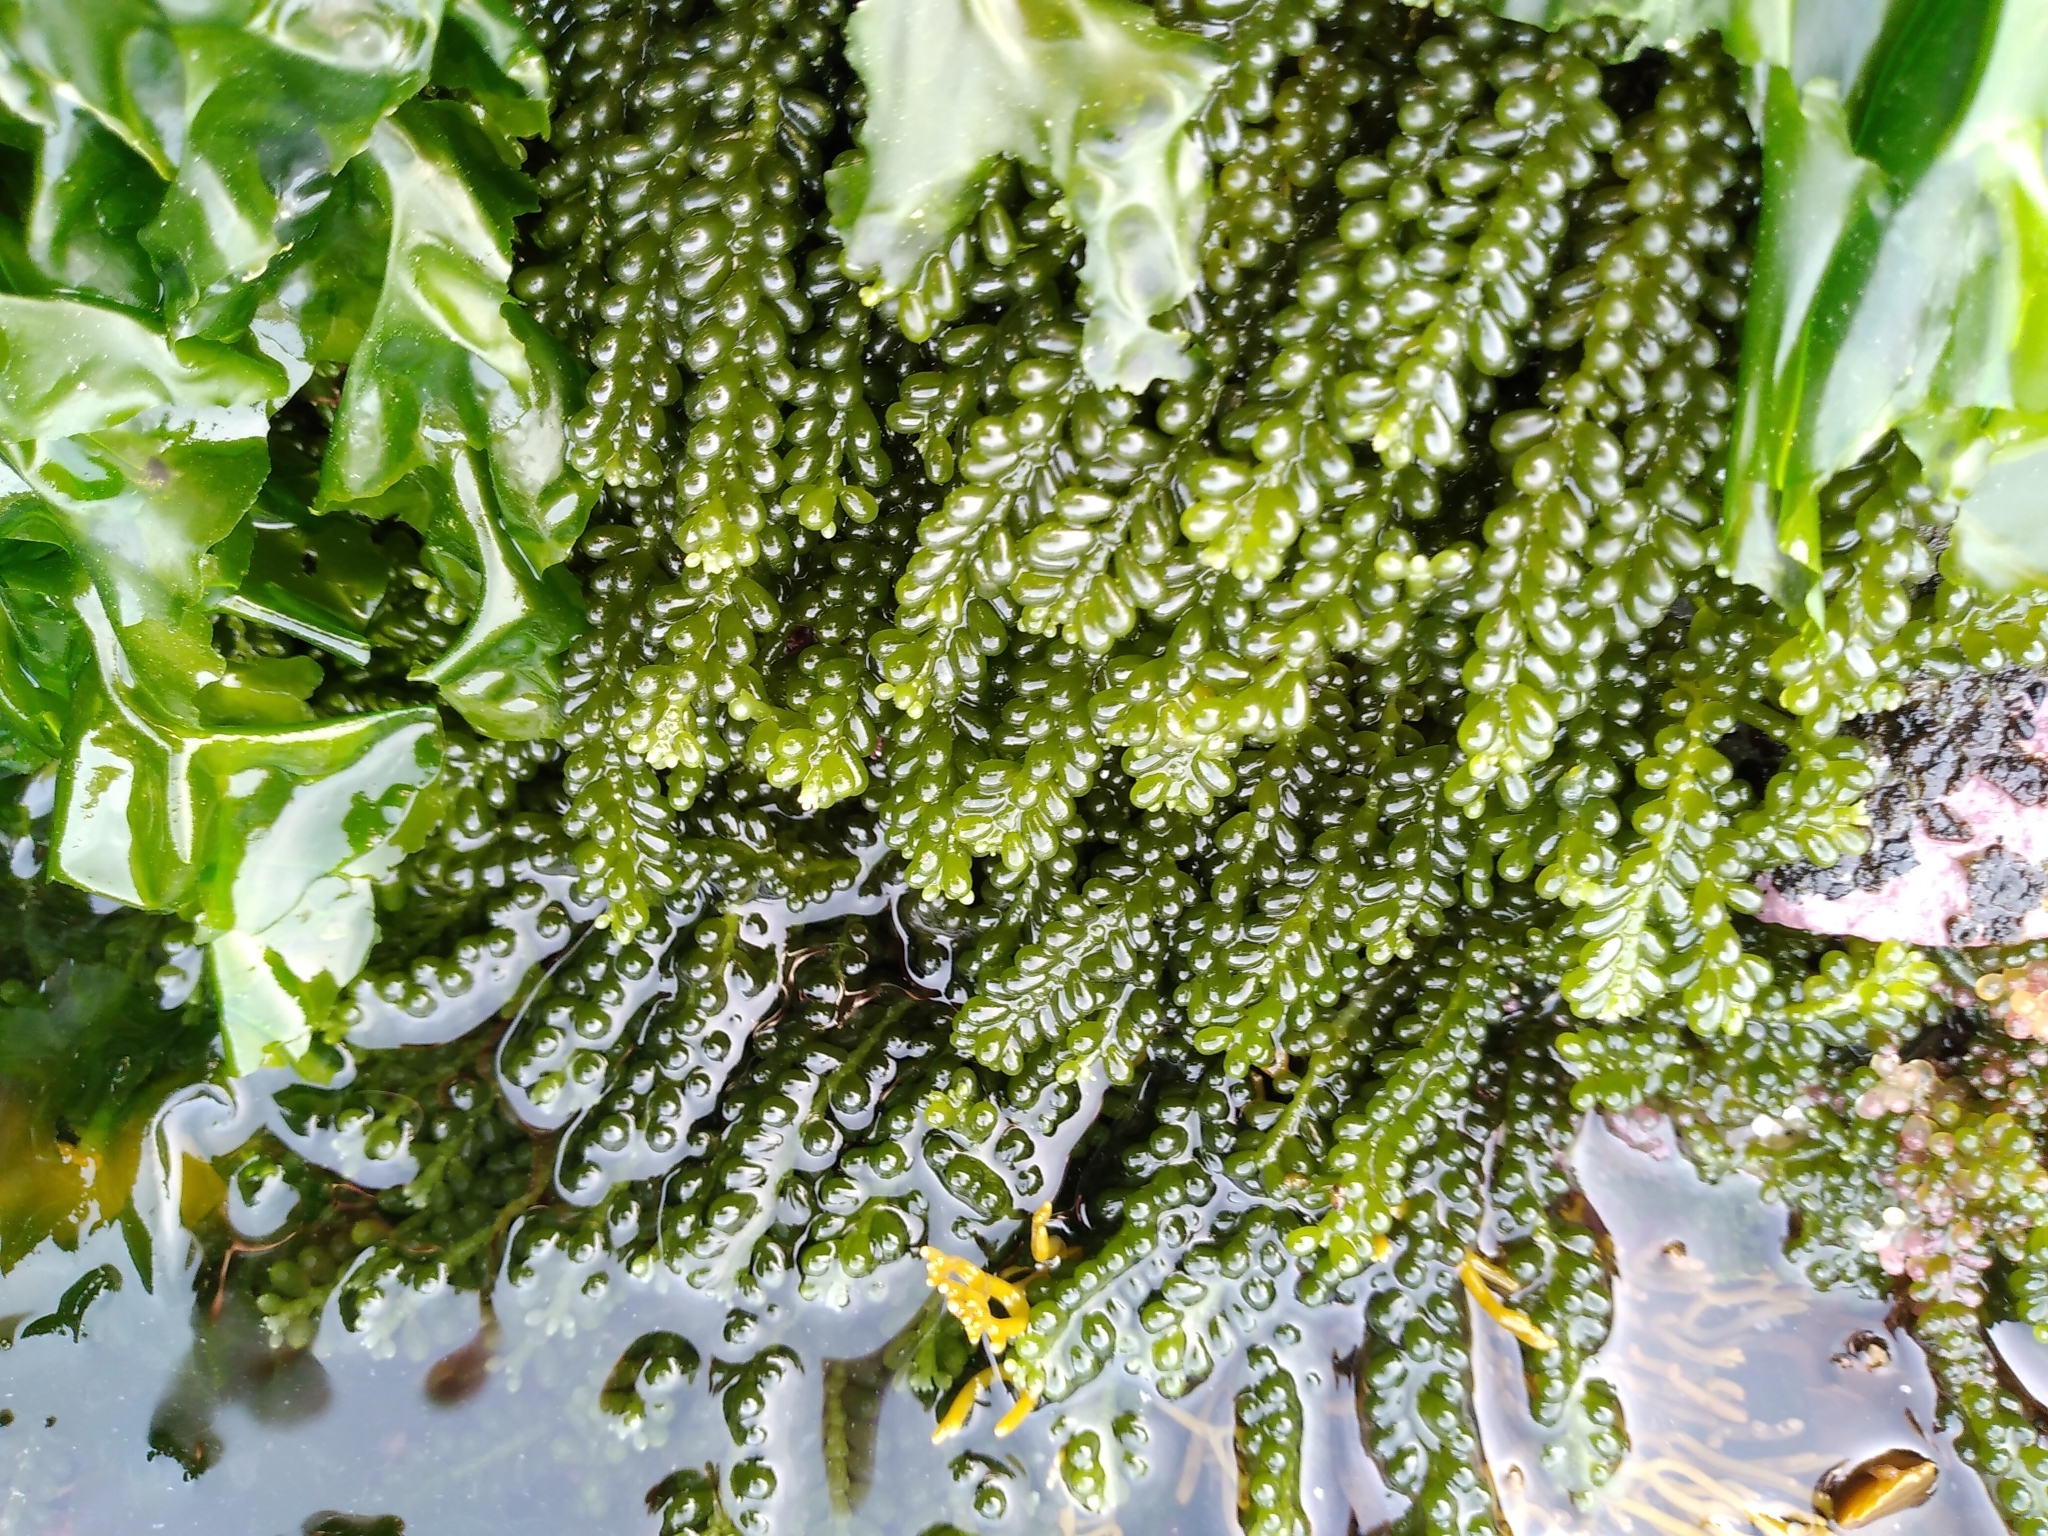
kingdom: Plantae
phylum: Chlorophyta
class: Ulvophyceae
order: Bryopsidales
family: Caulerpaceae
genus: Caulerpa
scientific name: Caulerpa geminata
